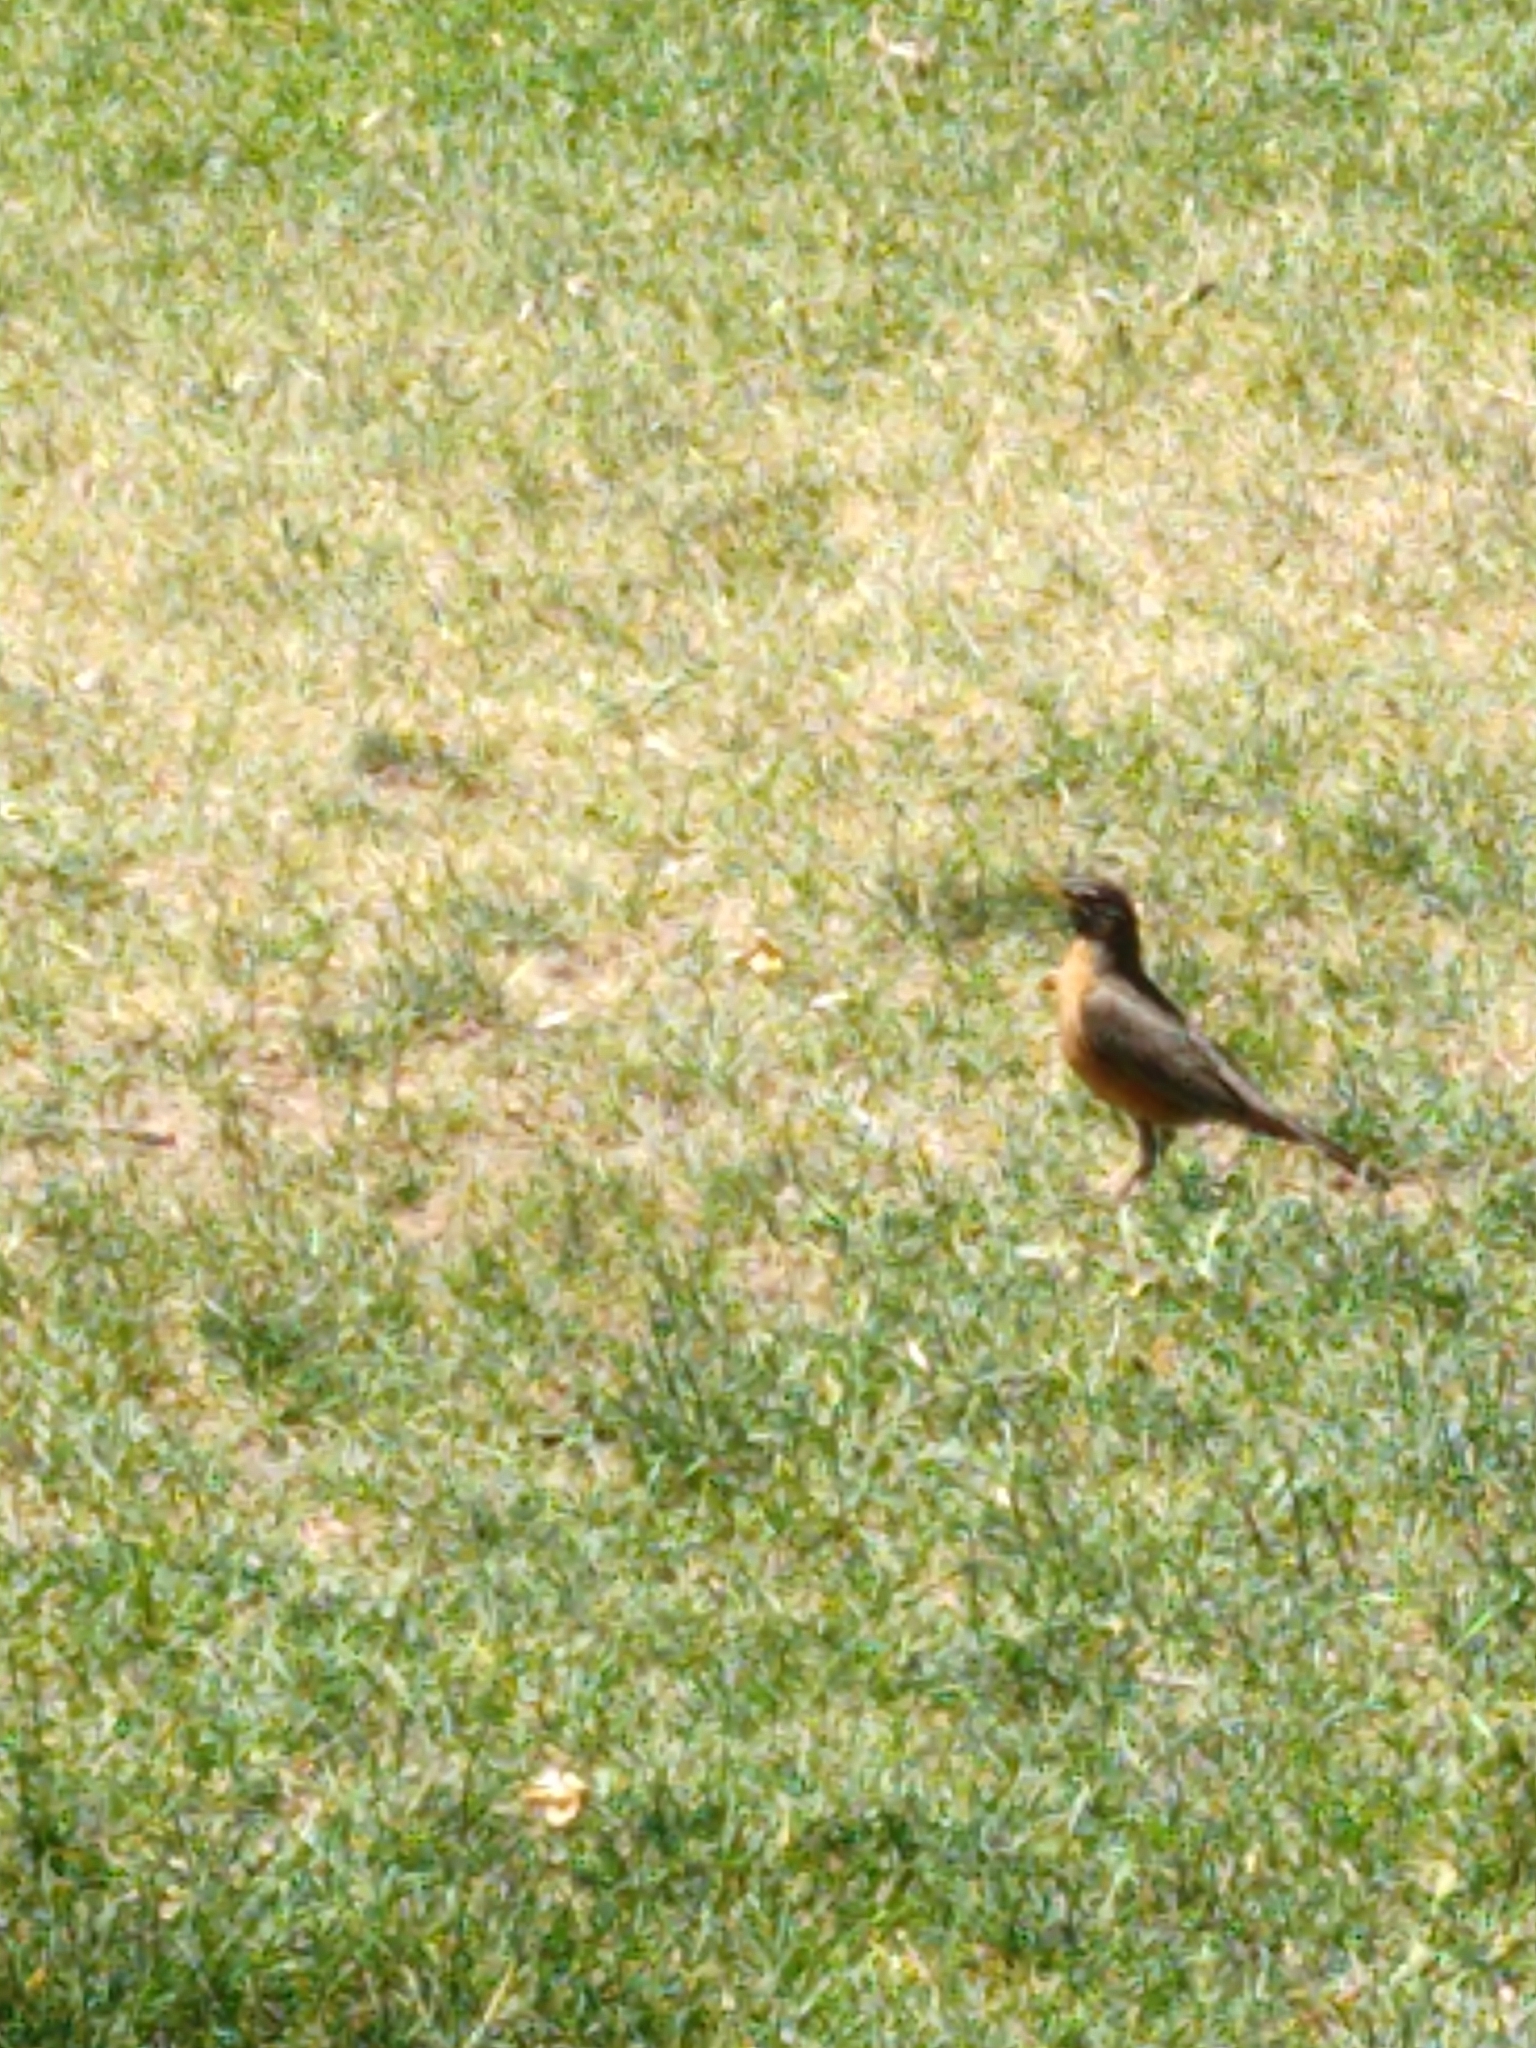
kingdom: Animalia
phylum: Chordata
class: Aves
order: Passeriformes
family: Turdidae
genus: Turdus
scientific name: Turdus migratorius
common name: American robin
